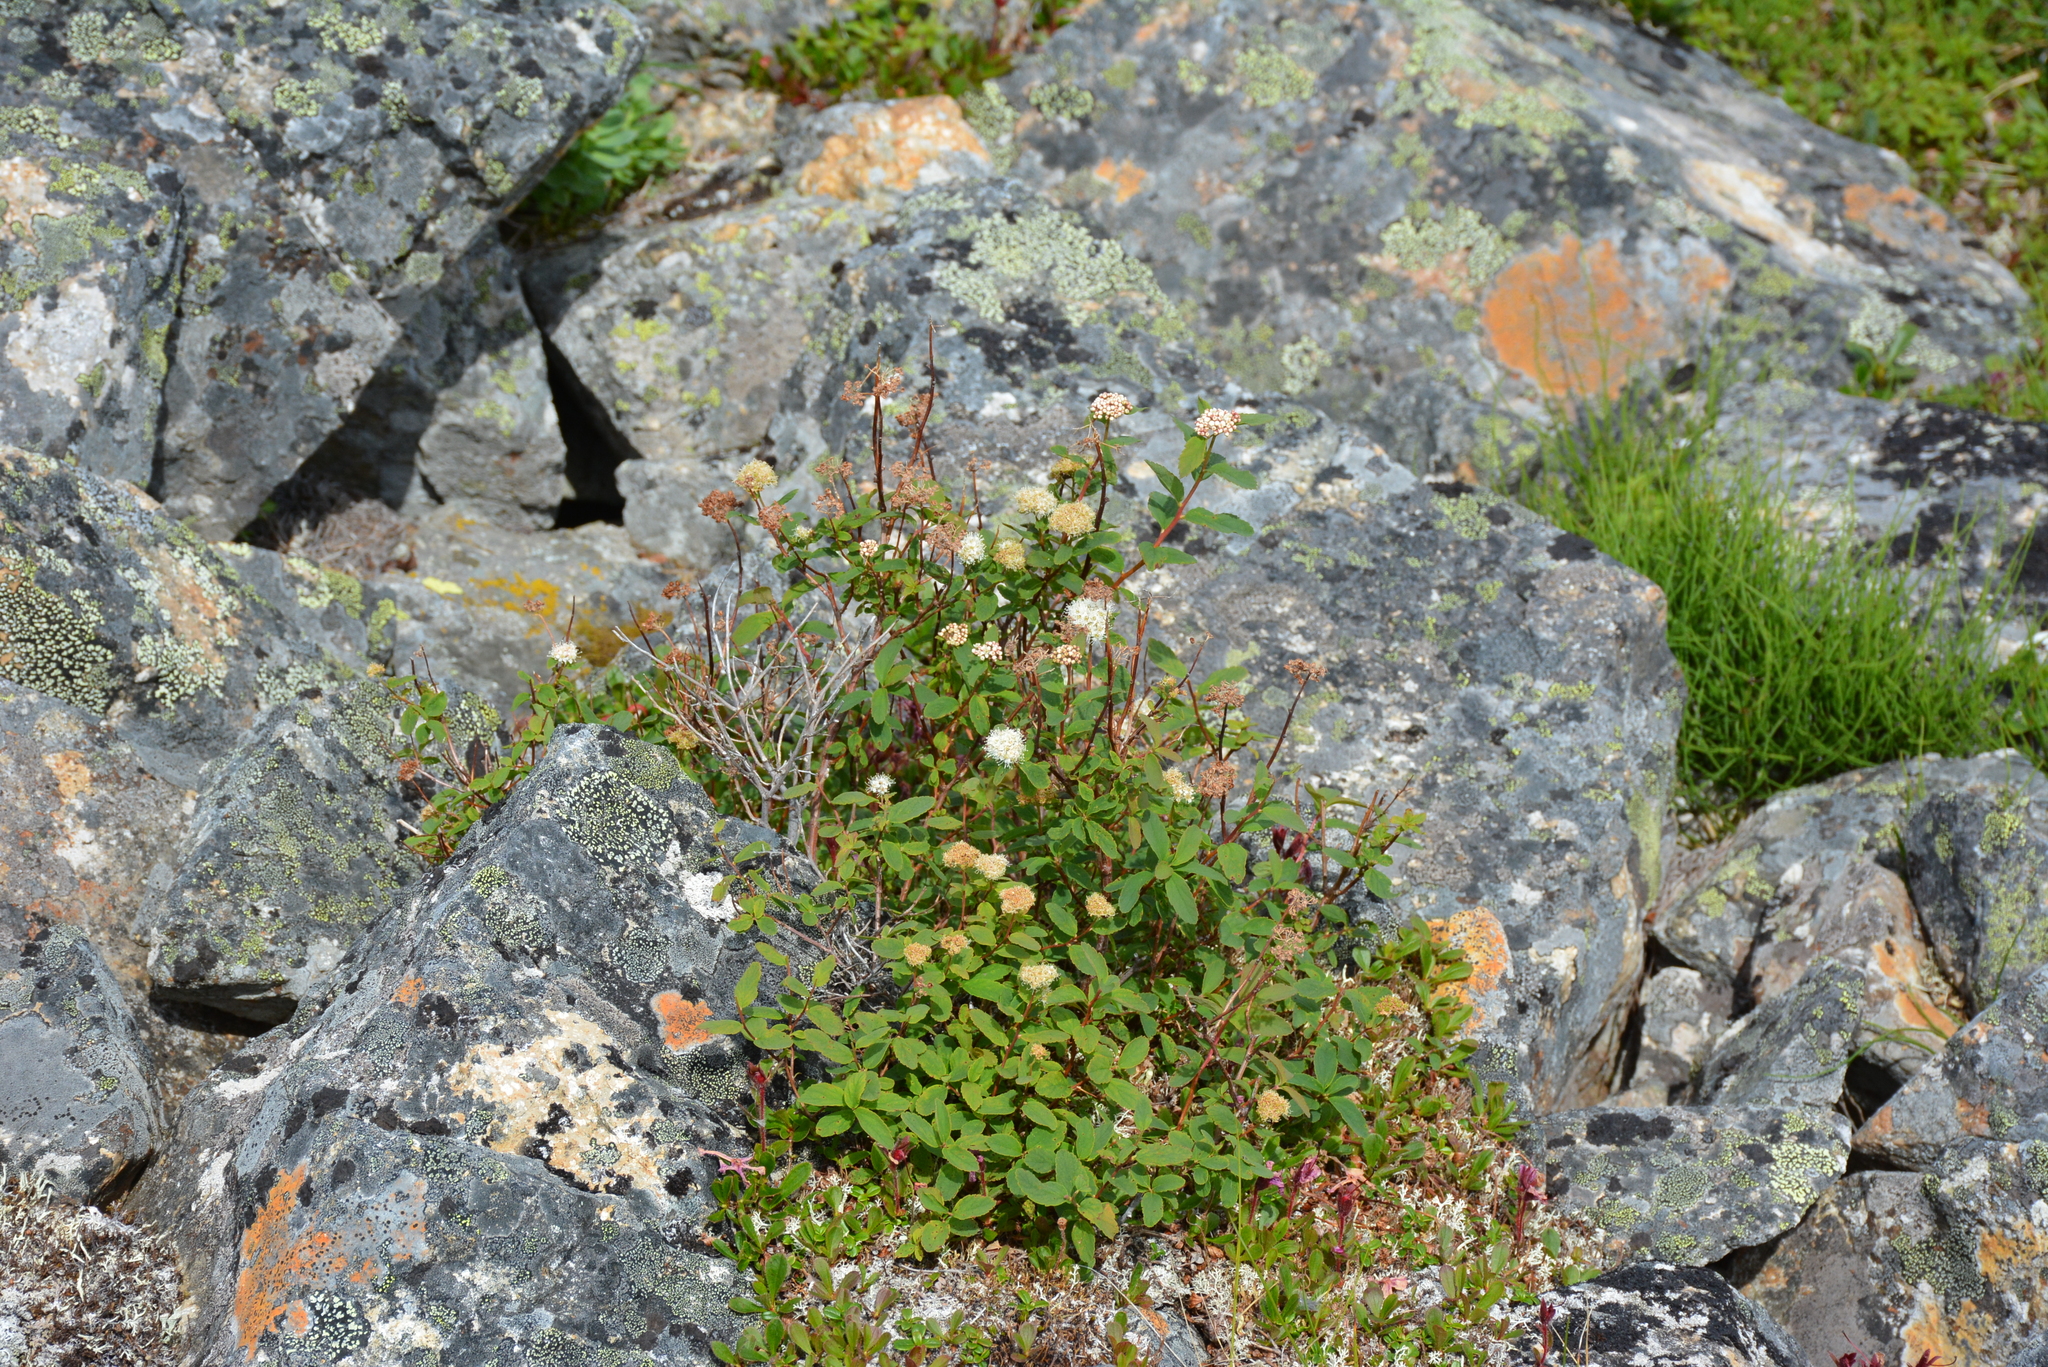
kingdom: Plantae
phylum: Tracheophyta
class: Magnoliopsida
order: Rosales
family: Rosaceae
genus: Spiraea
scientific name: Spiraea stevenii
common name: Steven's meadowsweet
